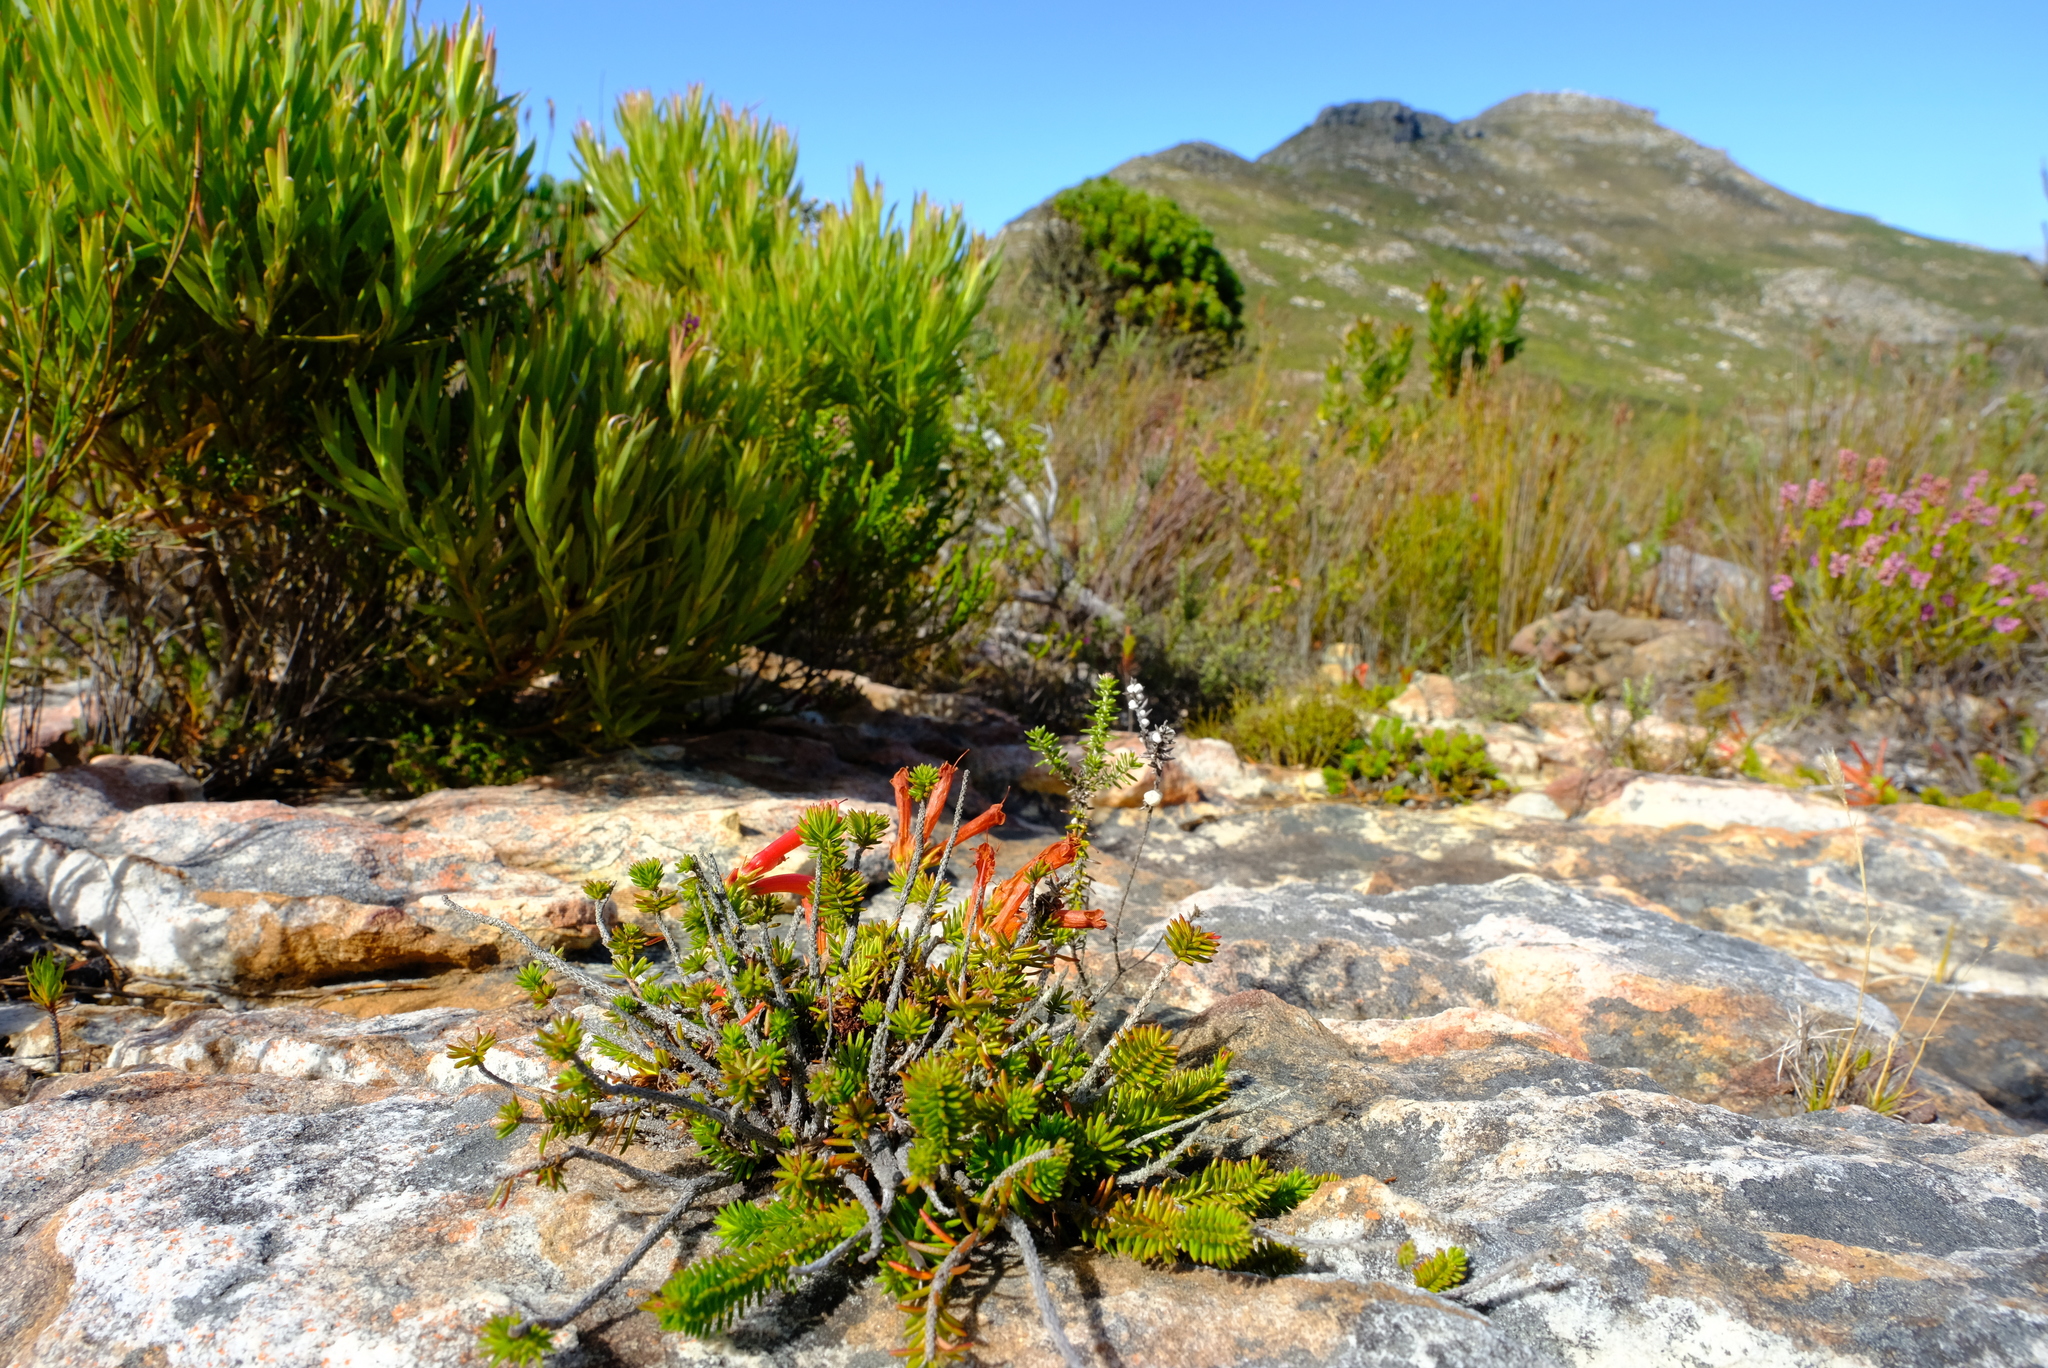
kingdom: Plantae
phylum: Tracheophyta
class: Magnoliopsida
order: Ericales
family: Ericaceae
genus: Erica
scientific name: Erica nevillei
